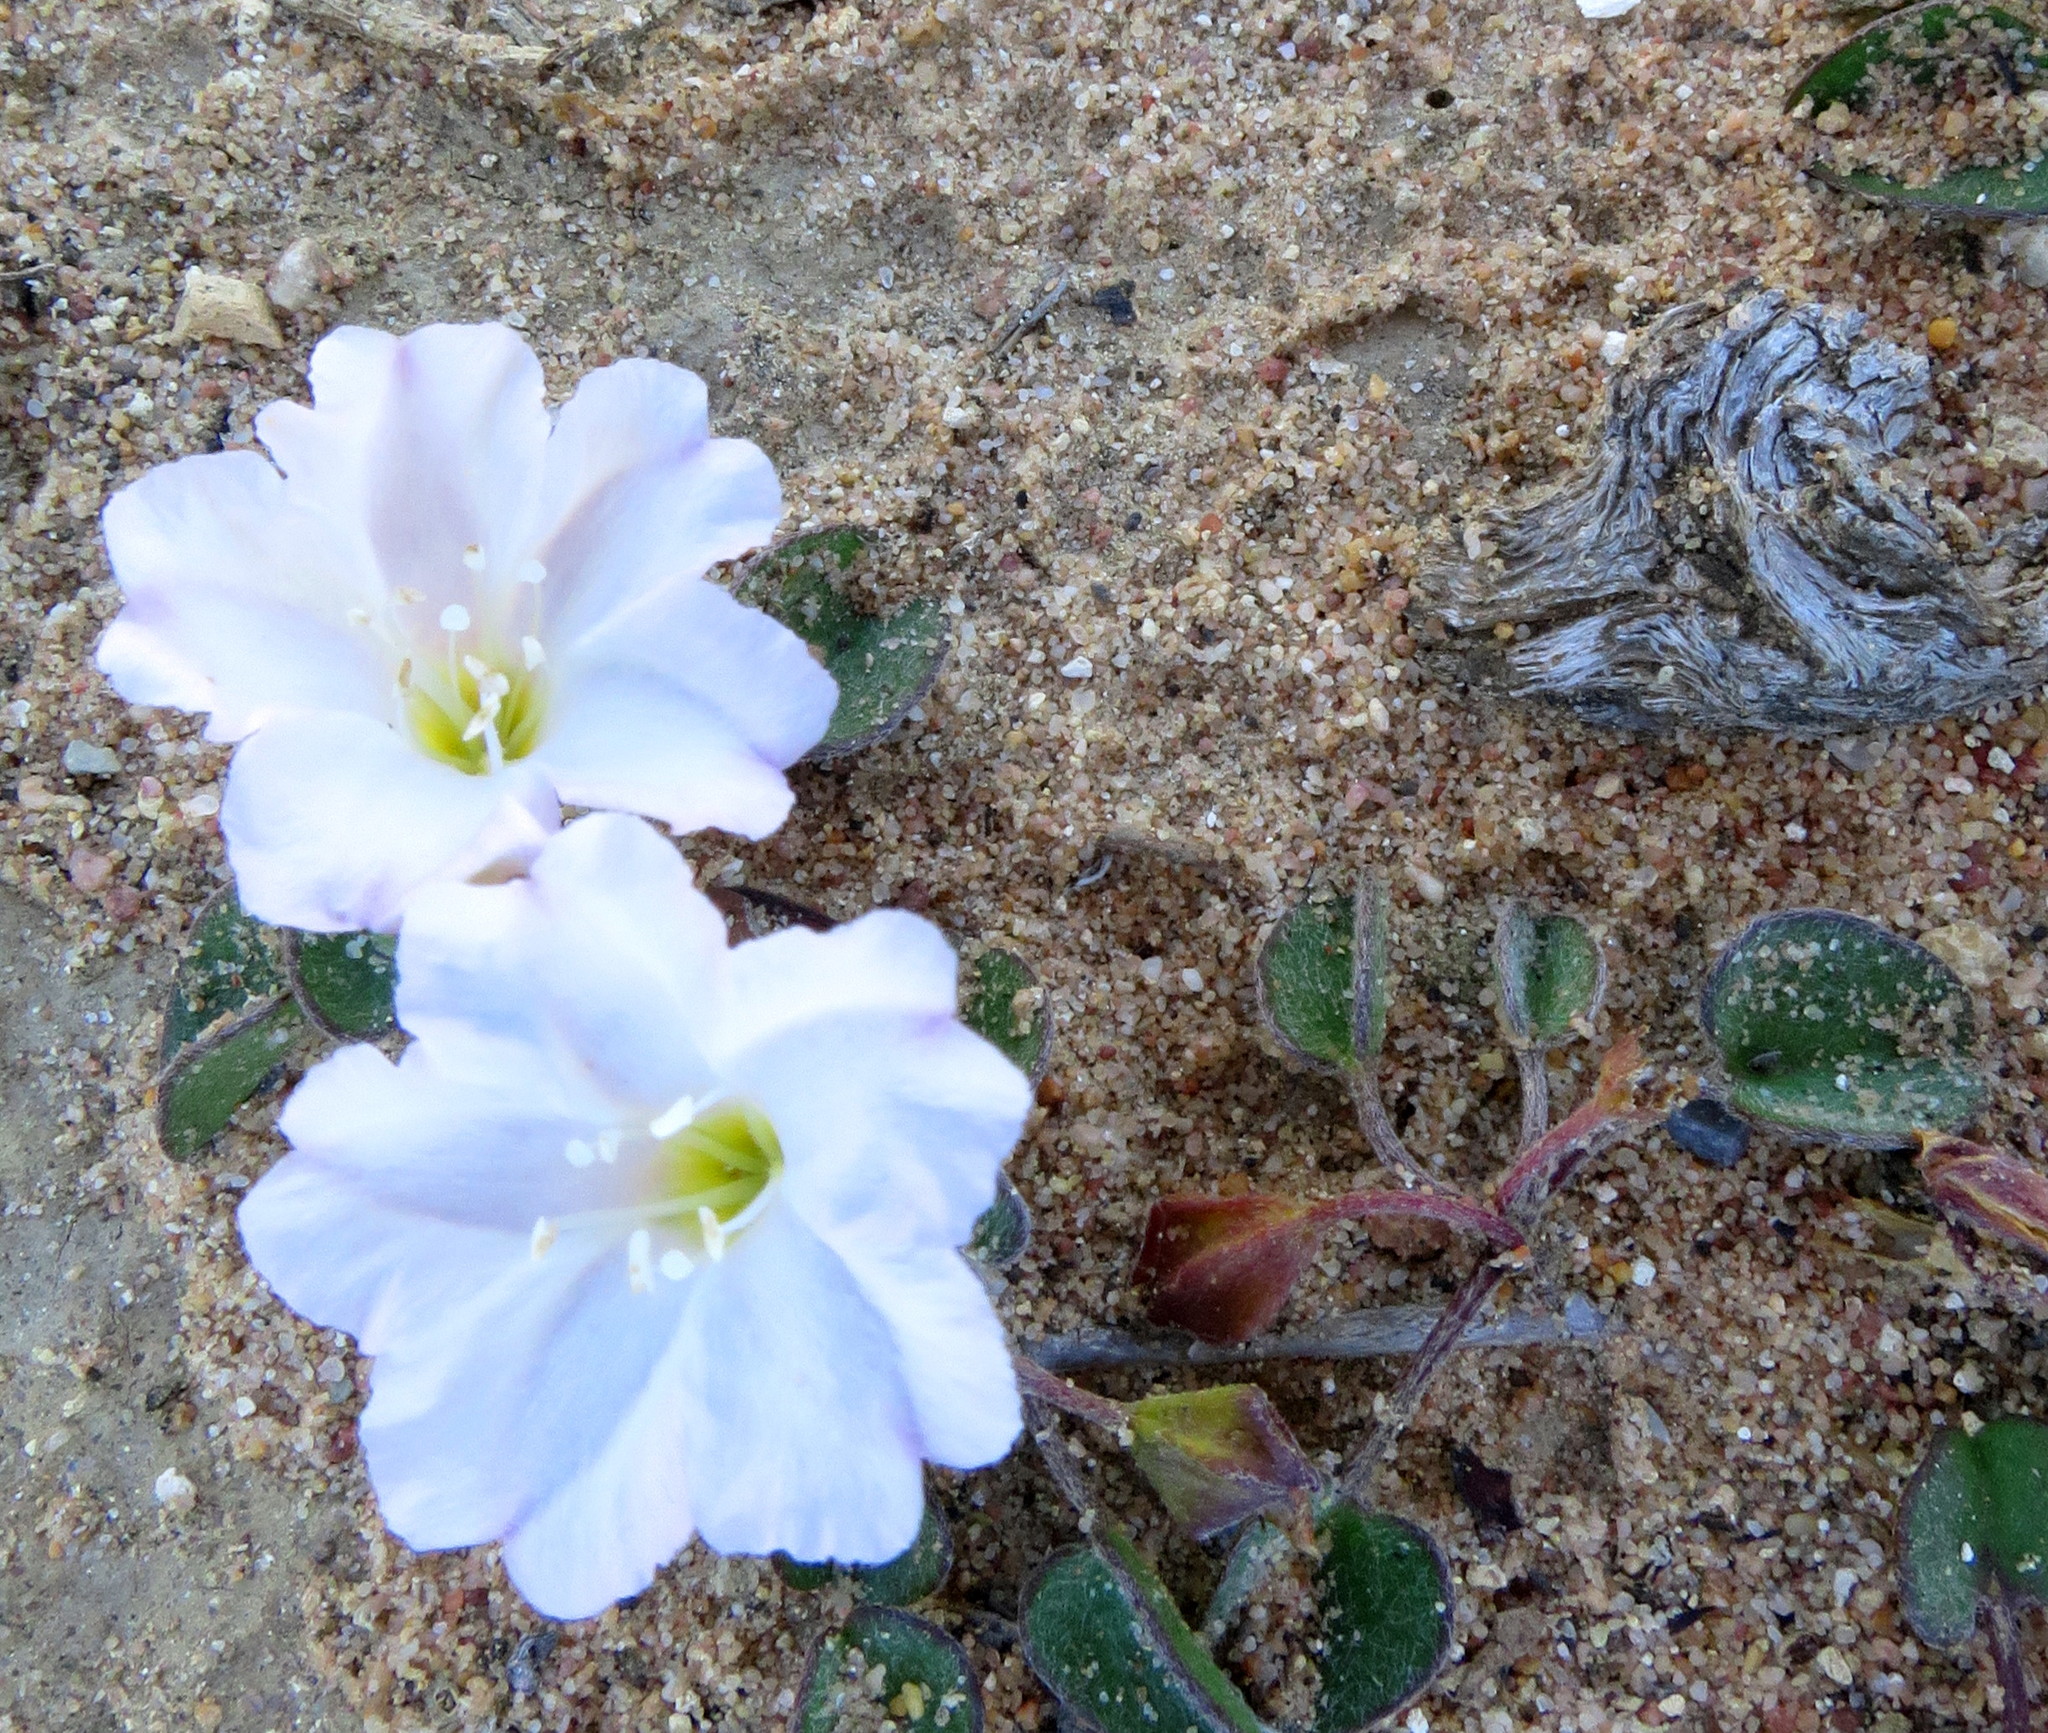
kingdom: Plantae
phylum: Tracheophyta
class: Magnoliopsida
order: Solanales
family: Convolvulaceae
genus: Falkia
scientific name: Falkia repens
